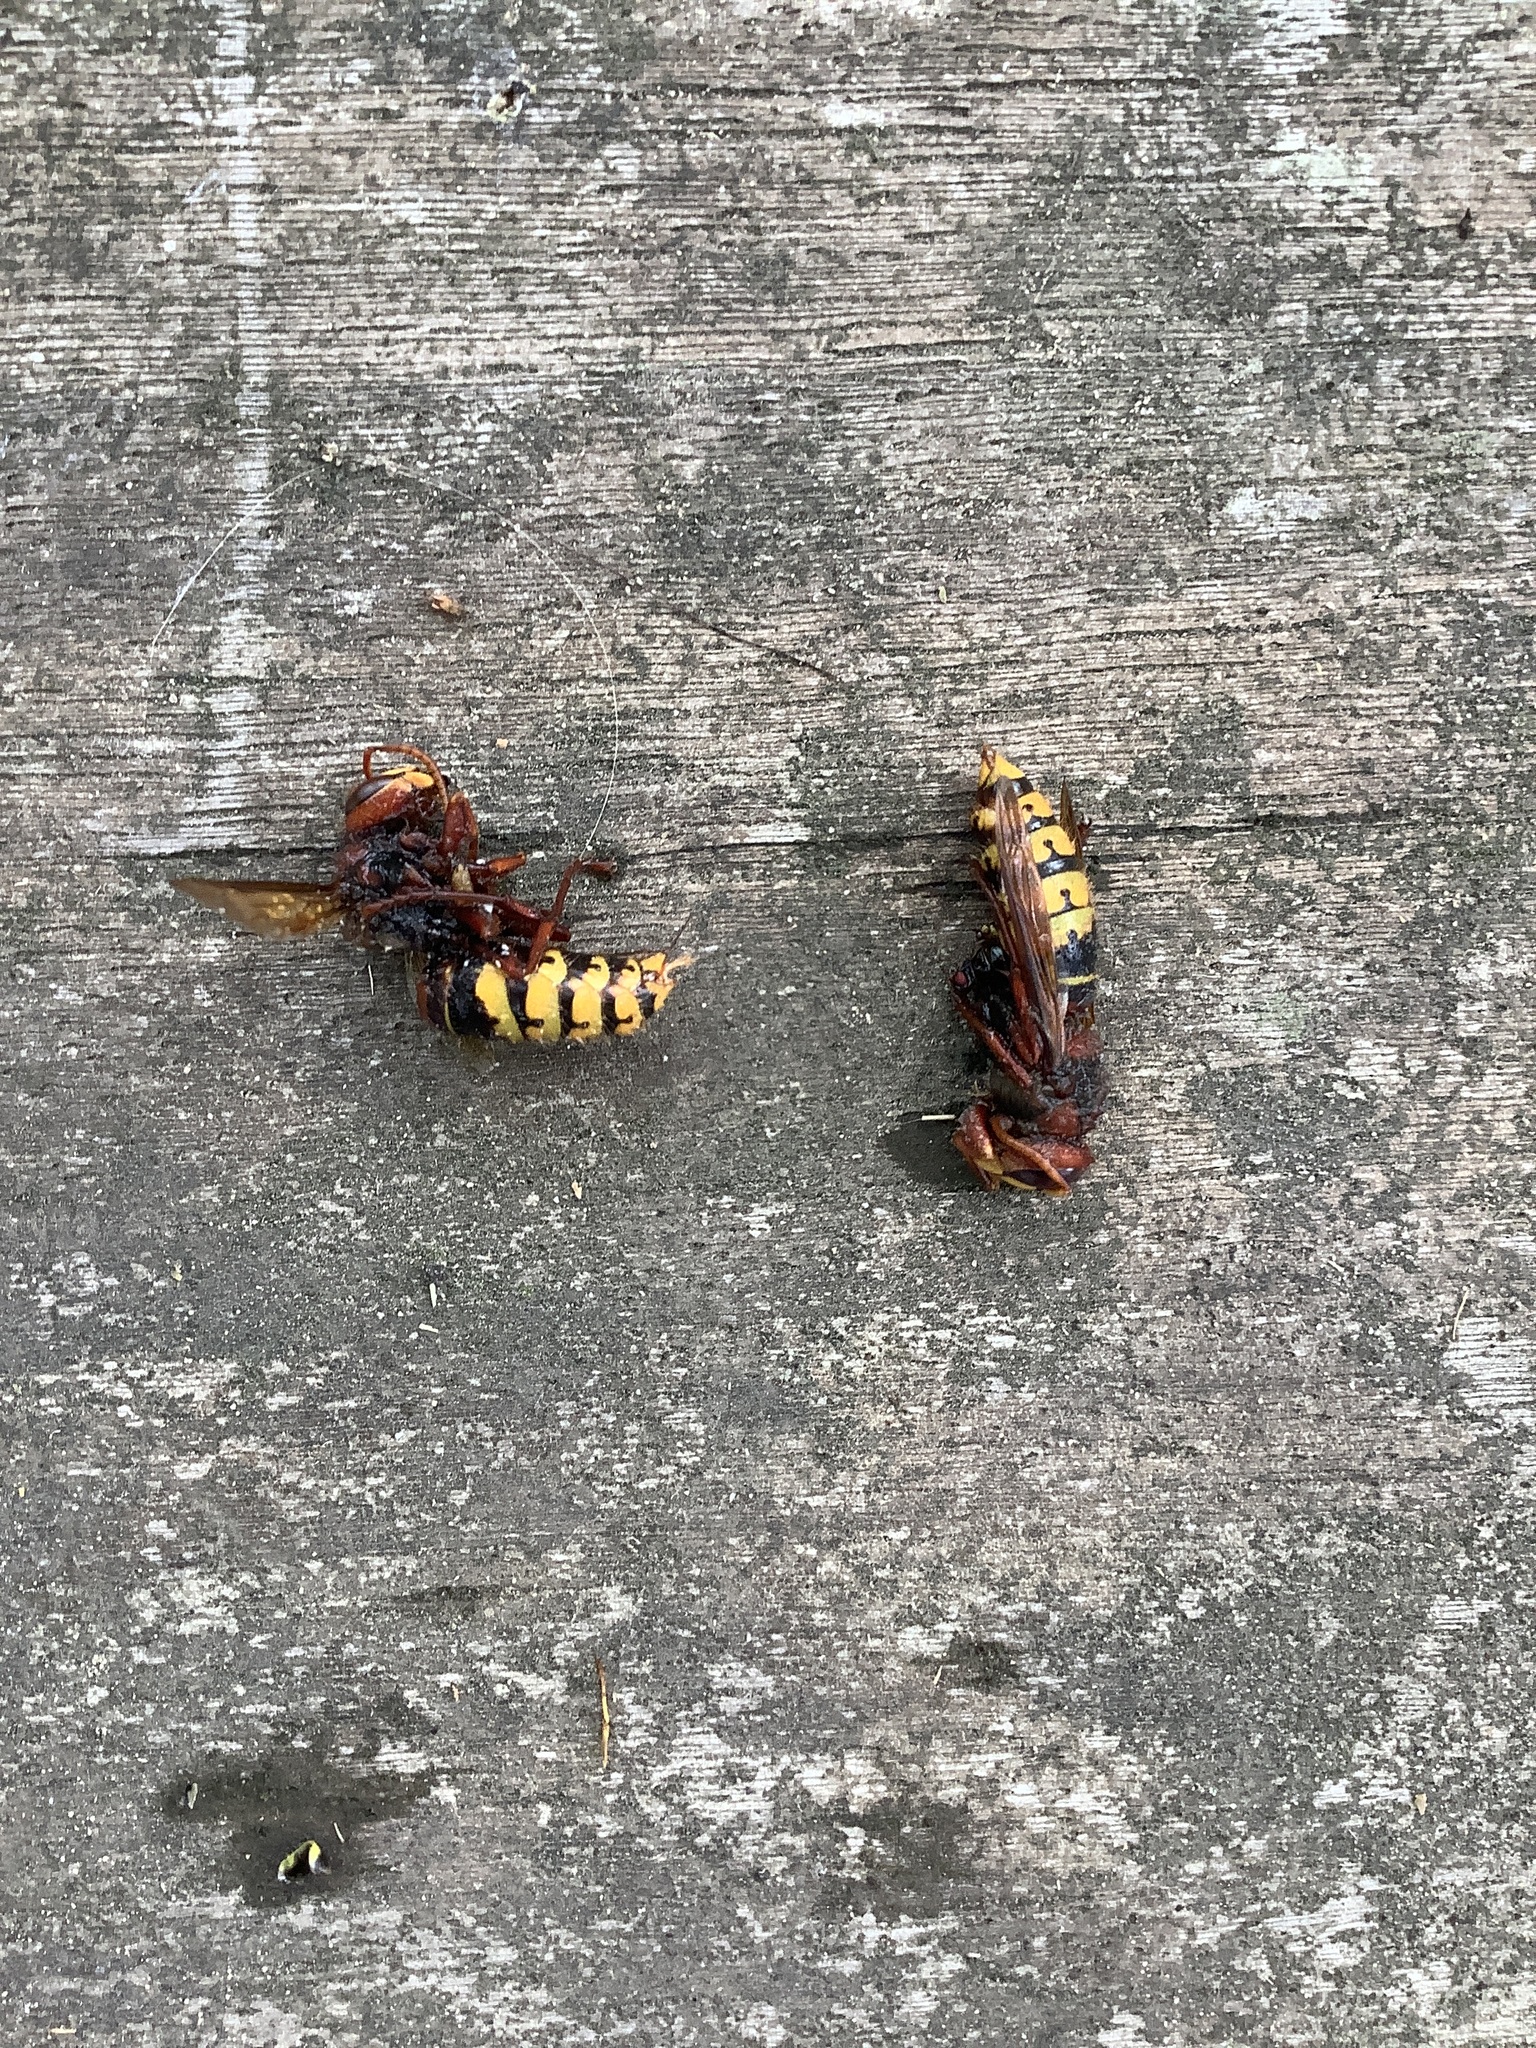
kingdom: Animalia
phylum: Arthropoda
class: Insecta
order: Hymenoptera
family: Vespidae
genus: Vespa
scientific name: Vespa crabro
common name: Hornet
